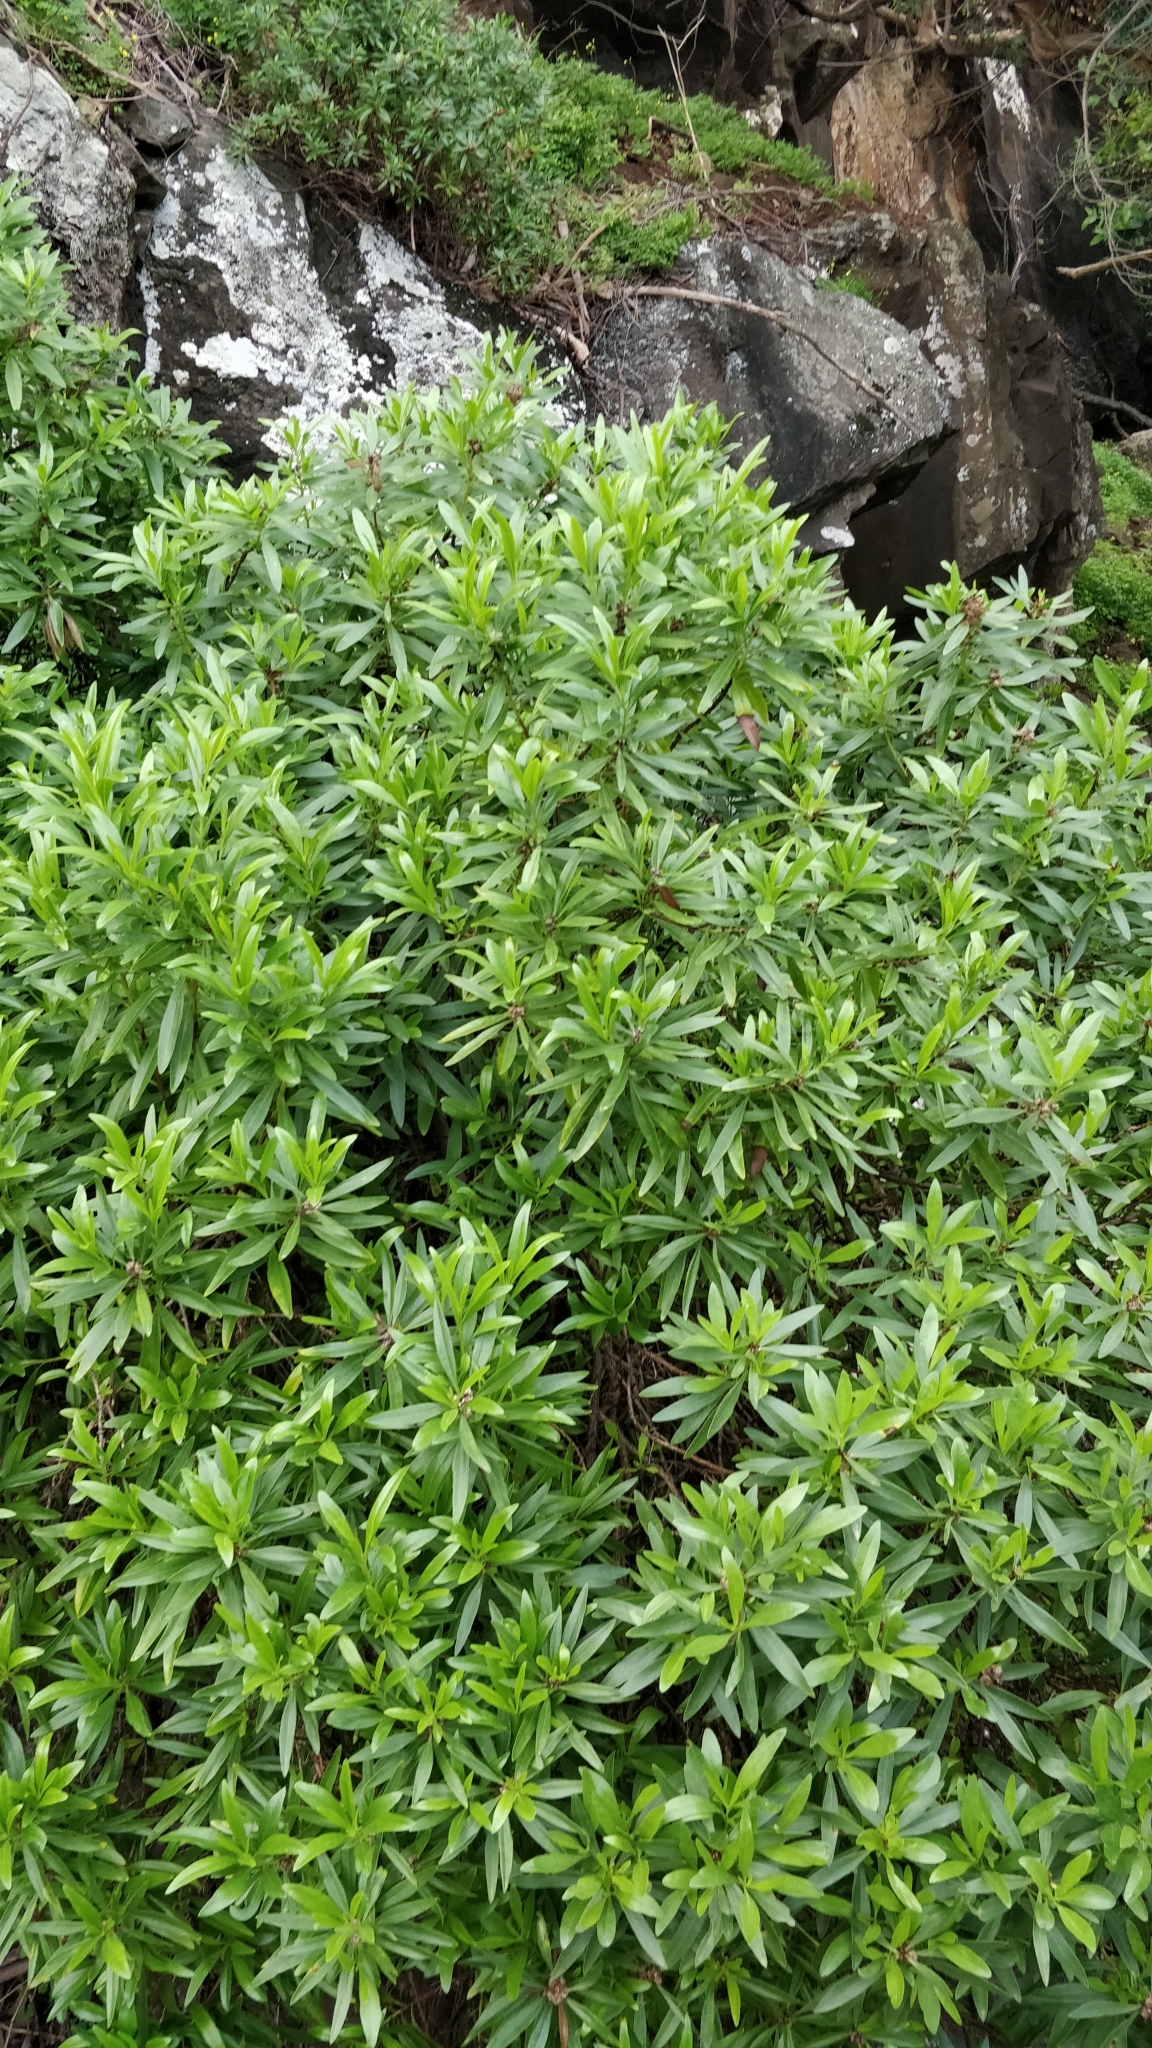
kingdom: Plantae
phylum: Tracheophyta
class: Magnoliopsida
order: Lamiales
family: Plantaginaceae
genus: Globularia
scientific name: Globularia salicina
